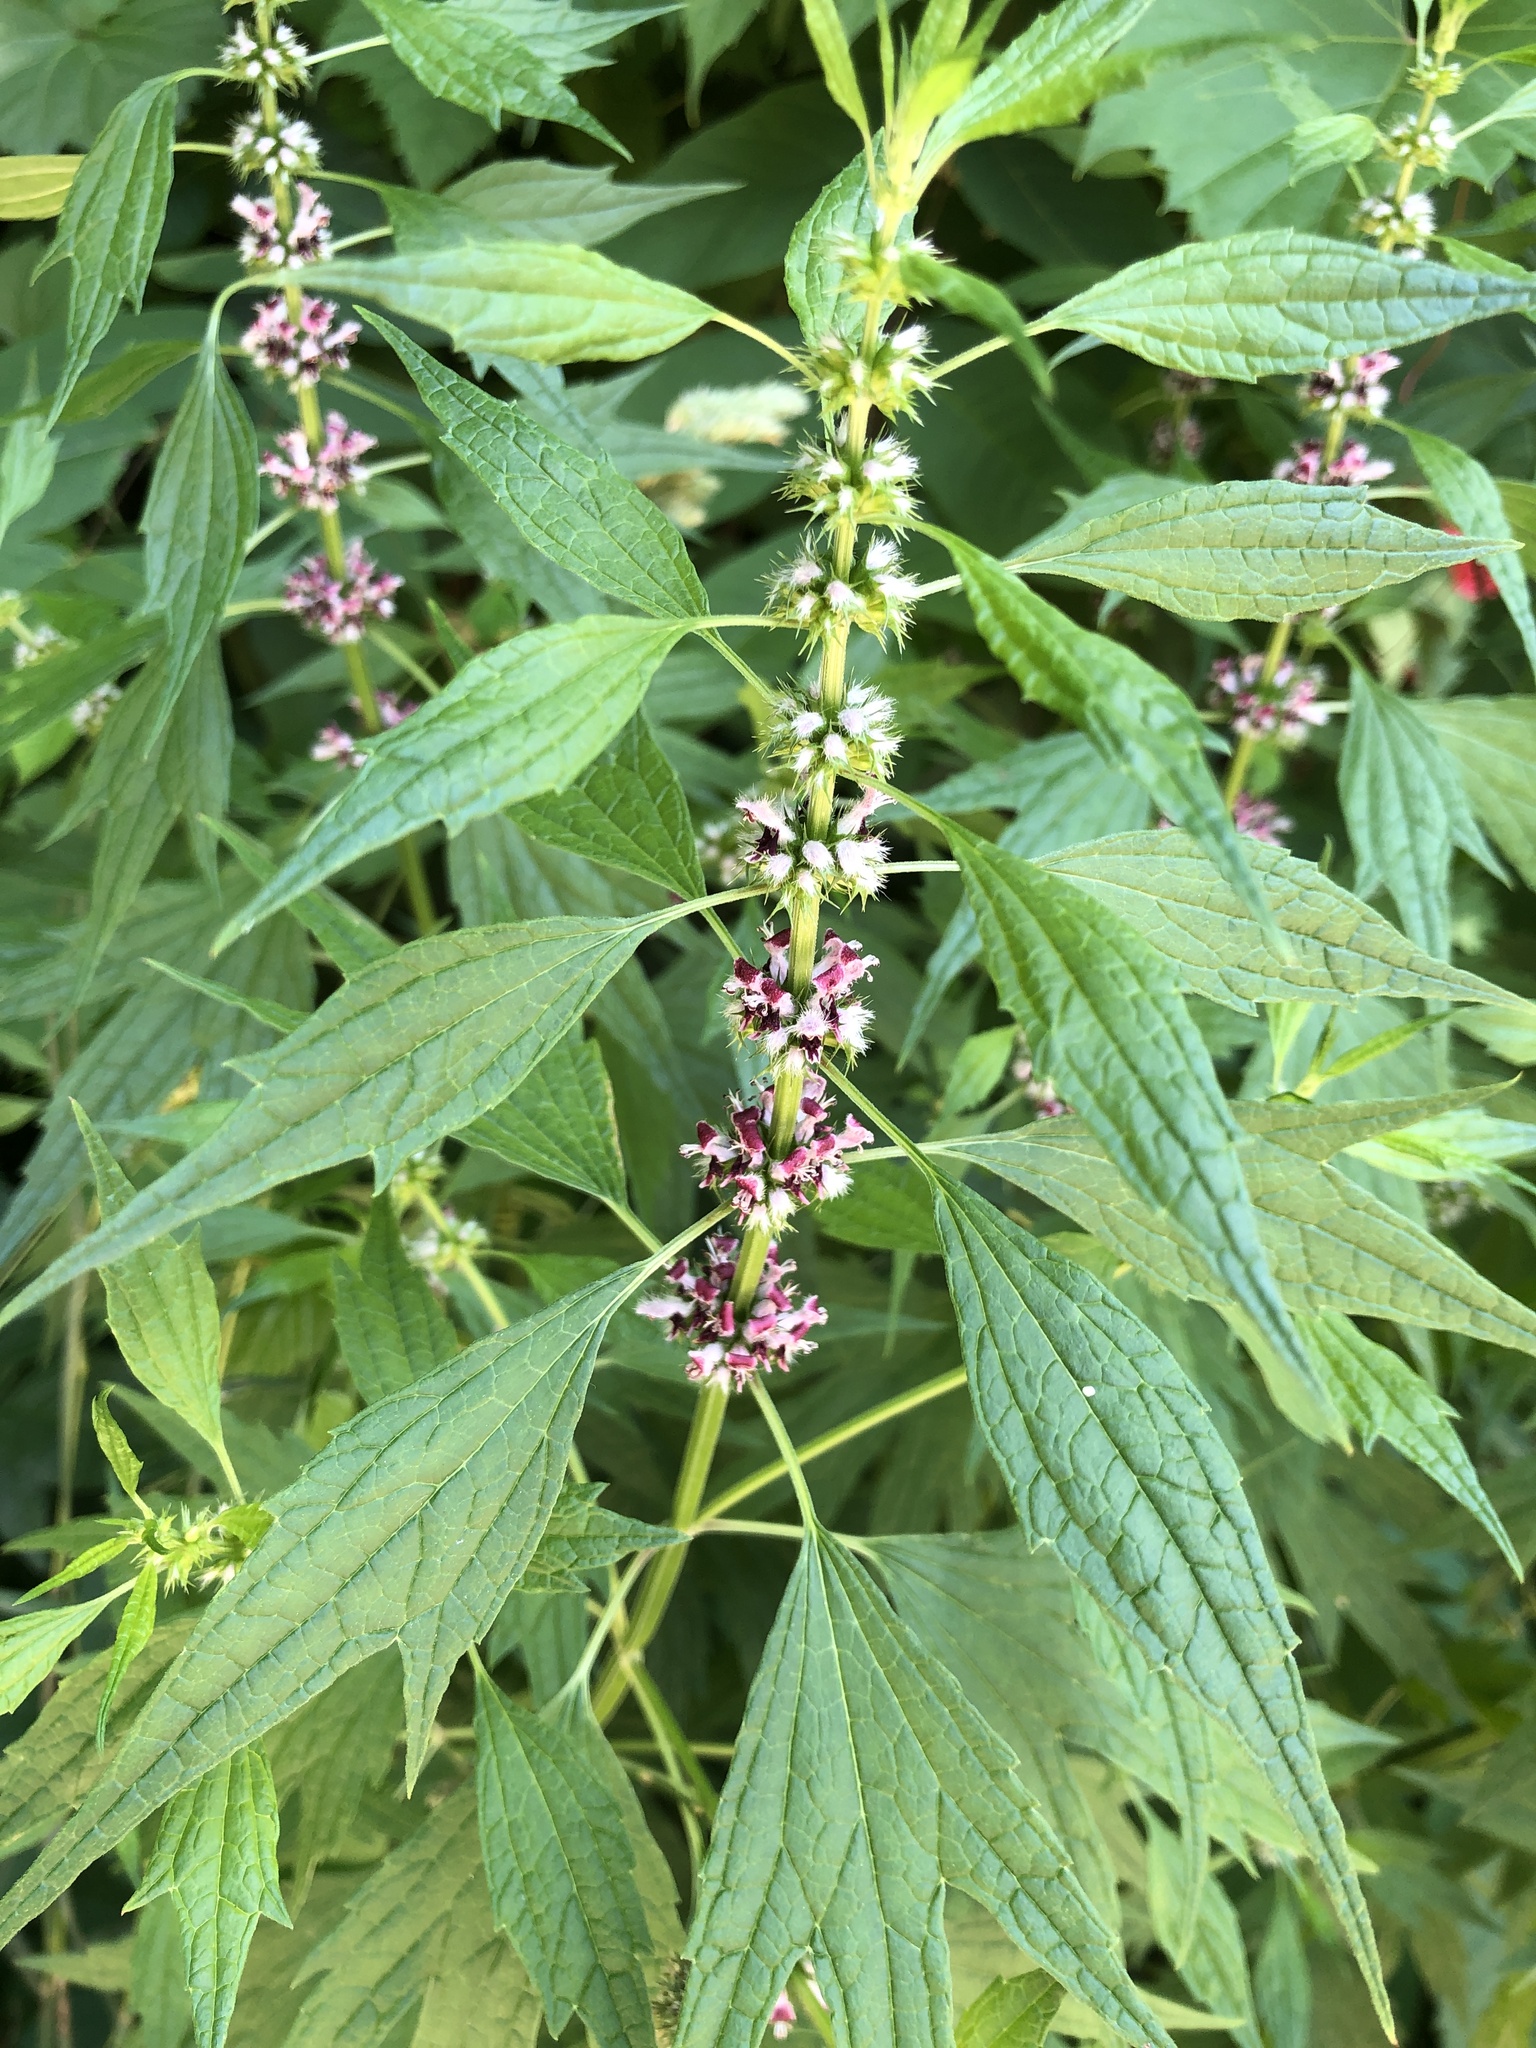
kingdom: Plantae
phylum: Tracheophyta
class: Magnoliopsida
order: Lamiales
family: Lamiaceae
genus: Leonurus
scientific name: Leonurus cardiaca
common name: Motherwort
